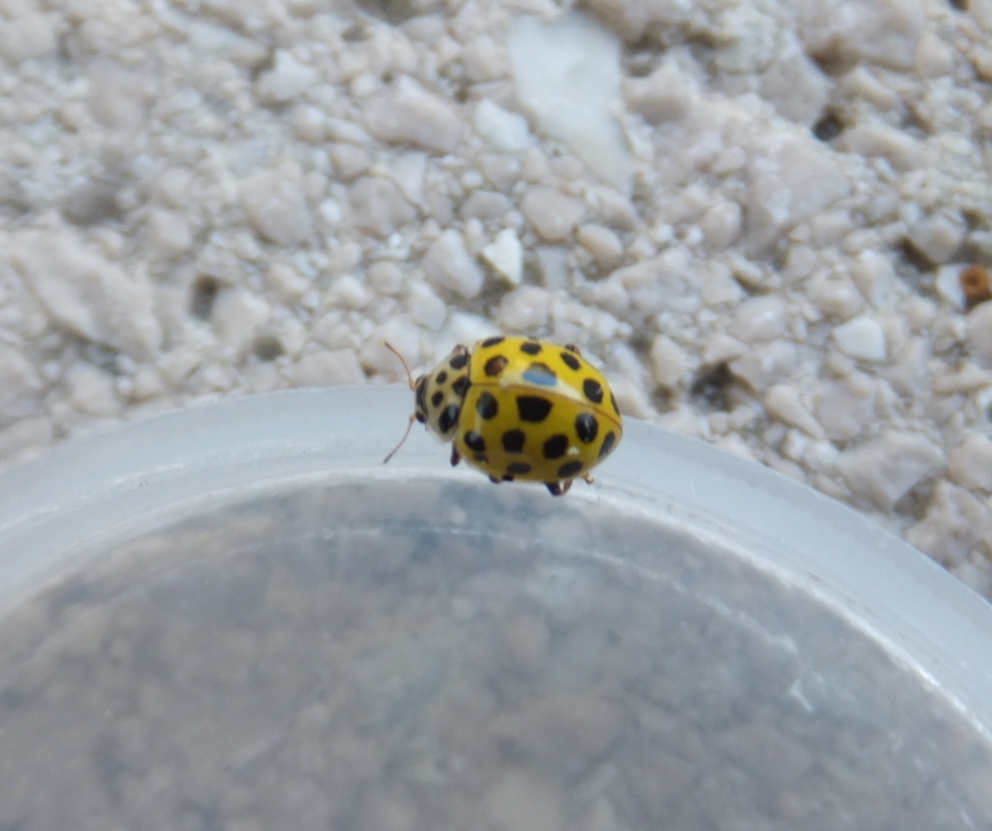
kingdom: Animalia
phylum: Arthropoda
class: Insecta
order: Coleoptera
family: Coccinellidae
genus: Psyllobora
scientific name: Psyllobora vigintiduopunctata
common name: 22-spot ladybird
